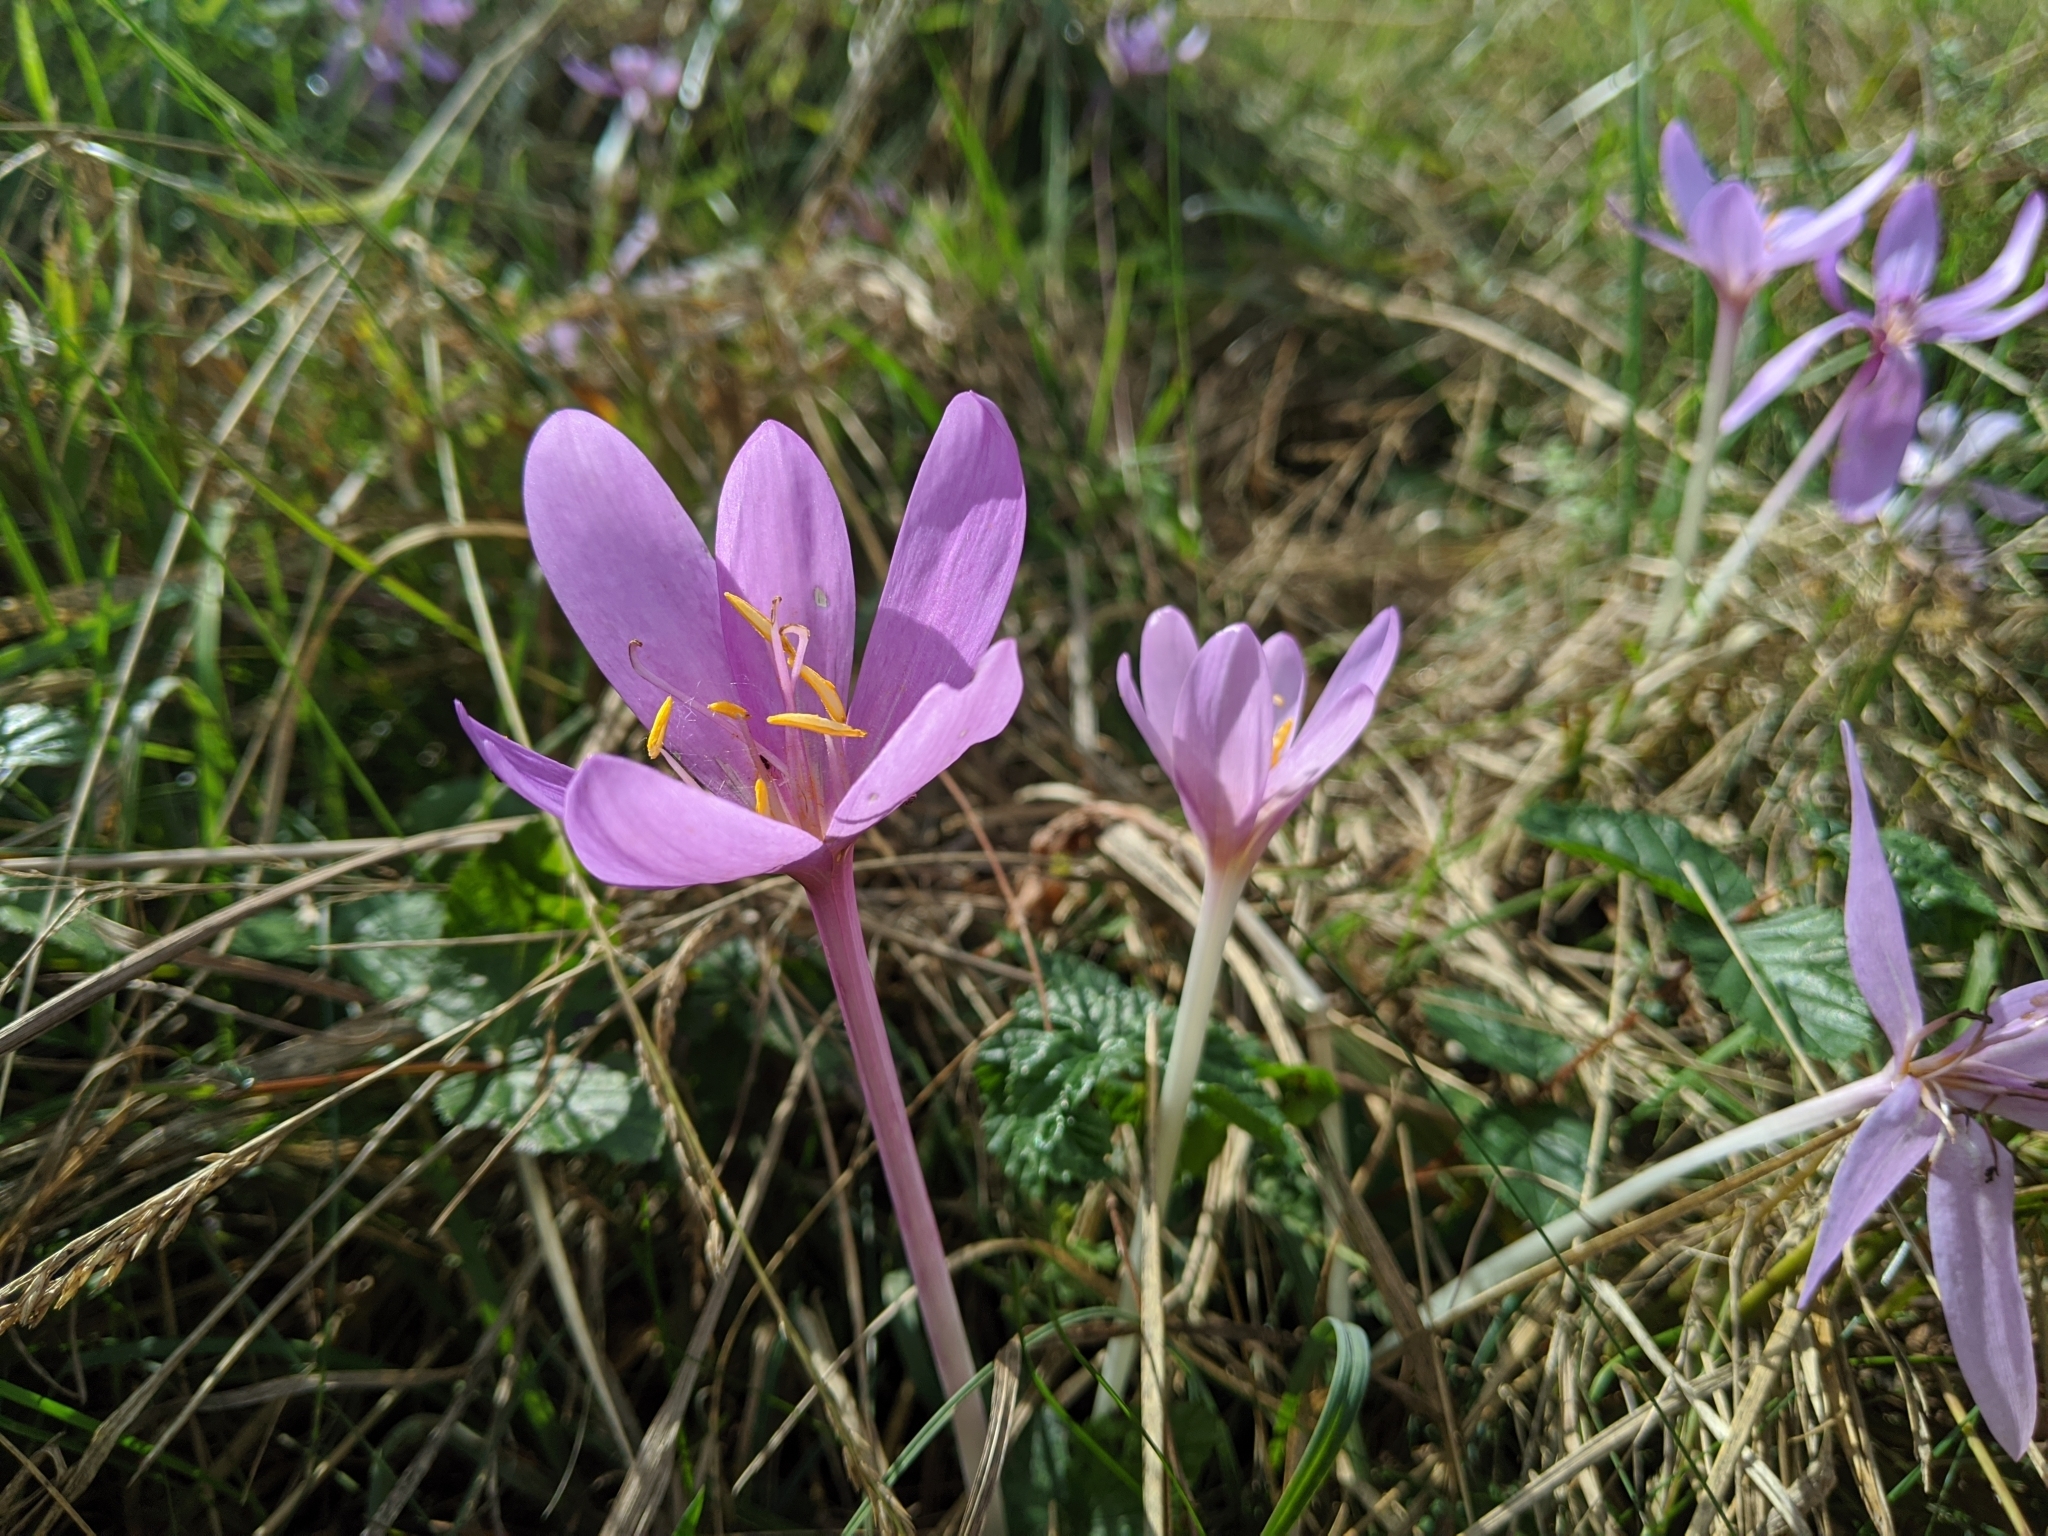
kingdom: Plantae
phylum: Tracheophyta
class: Liliopsida
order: Liliales
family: Colchicaceae
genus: Colchicum
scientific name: Colchicum autumnale
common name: Autumn crocus
